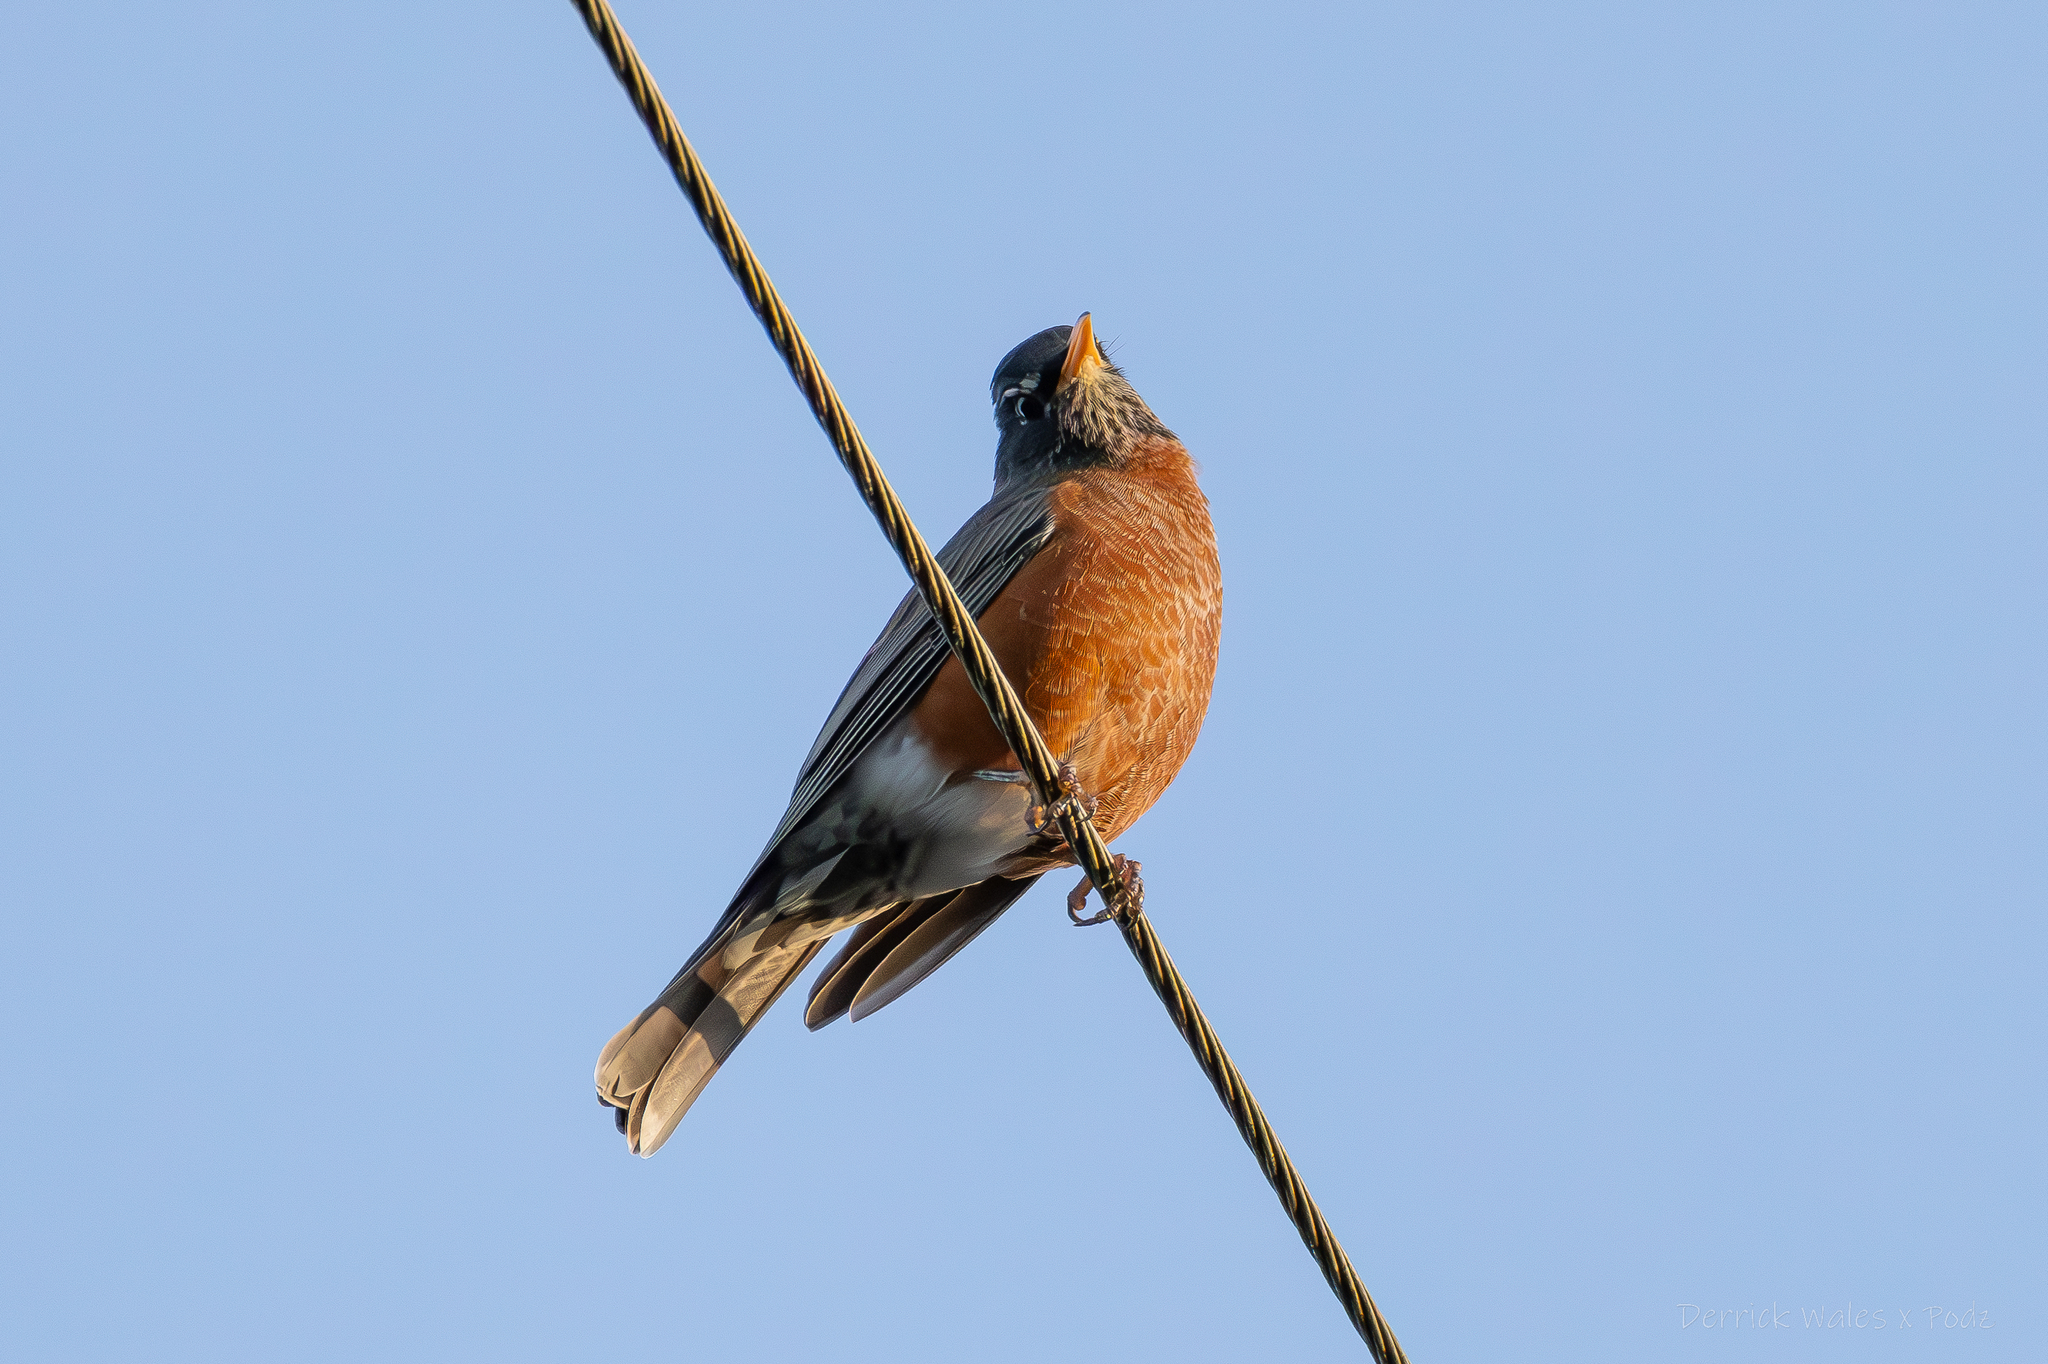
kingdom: Animalia
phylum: Chordata
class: Aves
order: Passeriformes
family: Turdidae
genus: Turdus
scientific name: Turdus migratorius
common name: American robin
